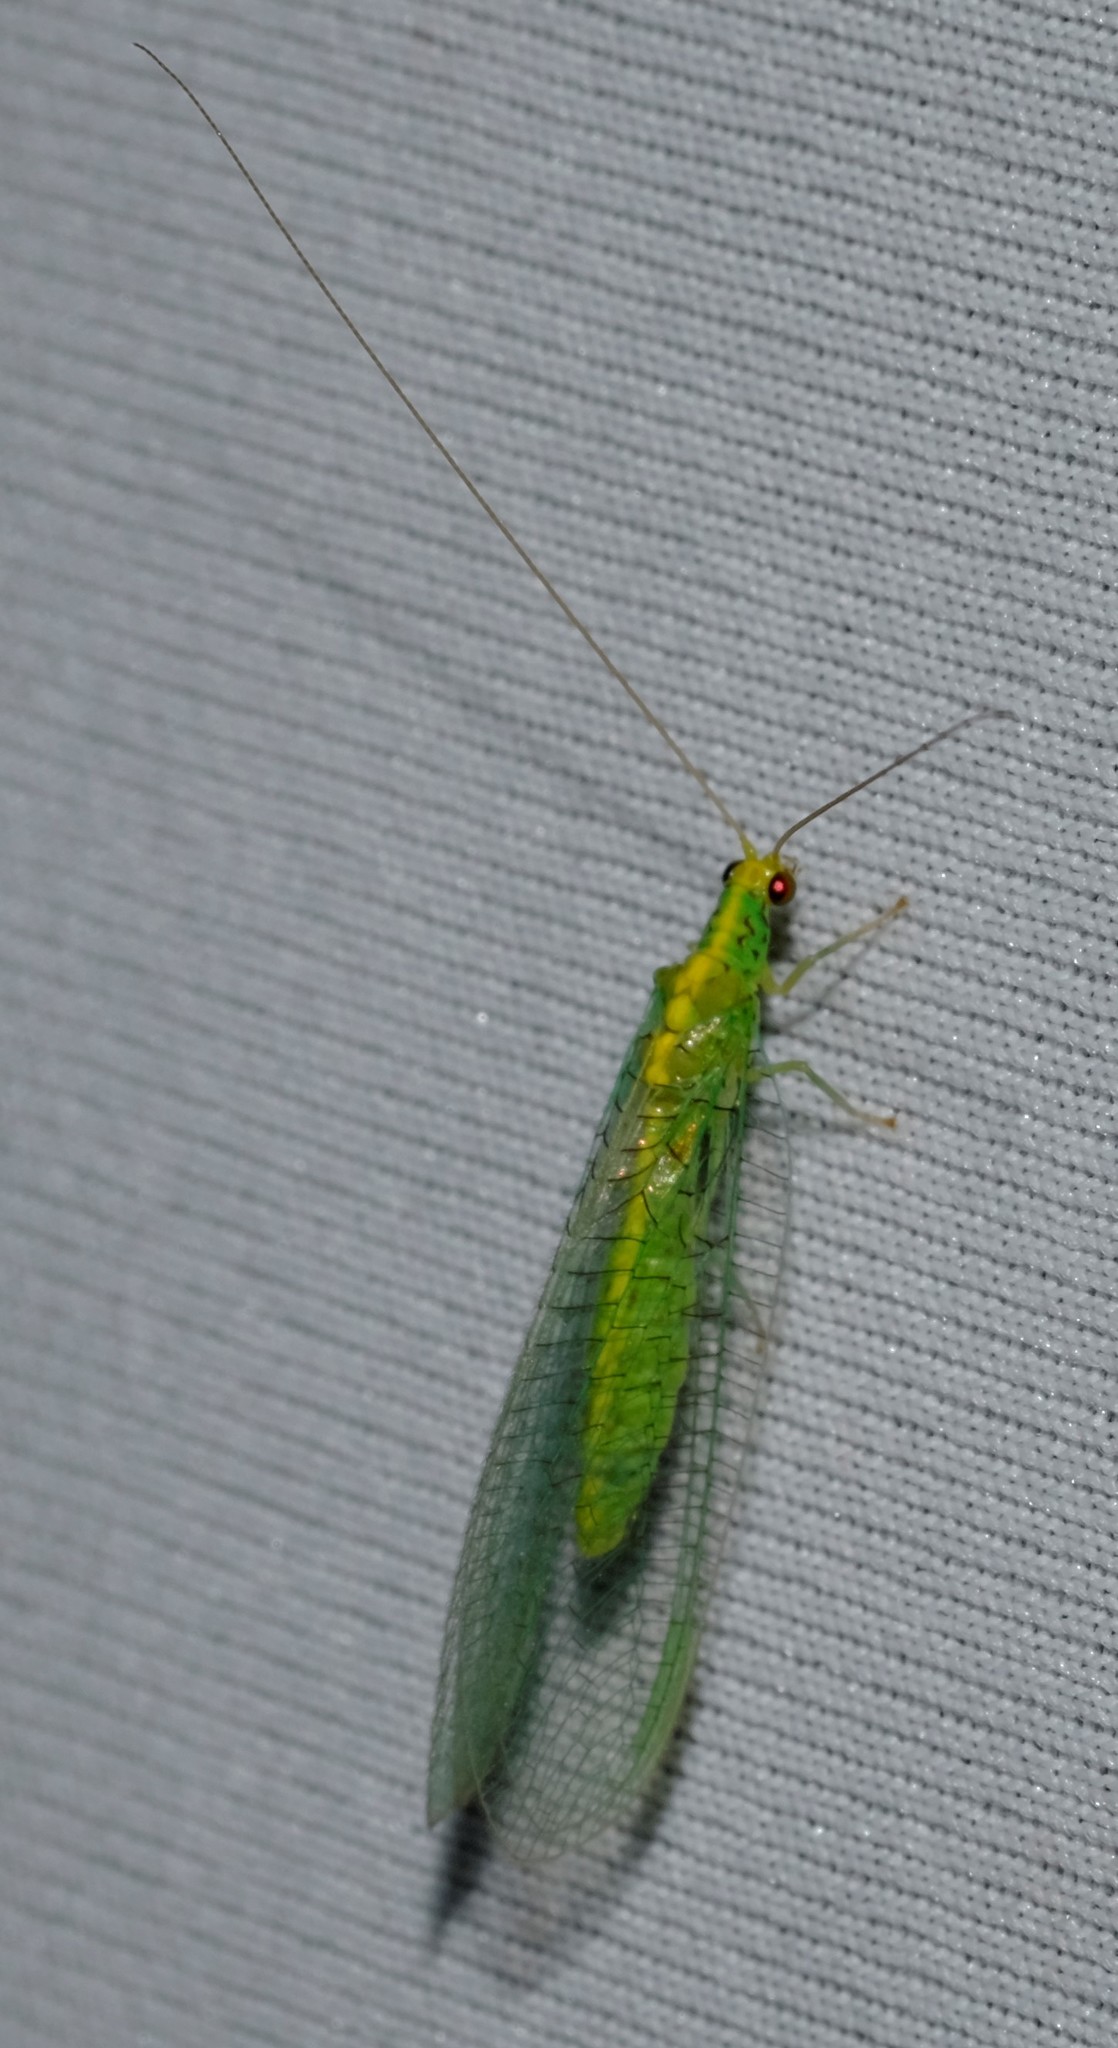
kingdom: Animalia
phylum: Arthropoda
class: Insecta
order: Neuroptera
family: Chrysopidae
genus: Pseudomallada
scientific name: Pseudomallada edwardsi
